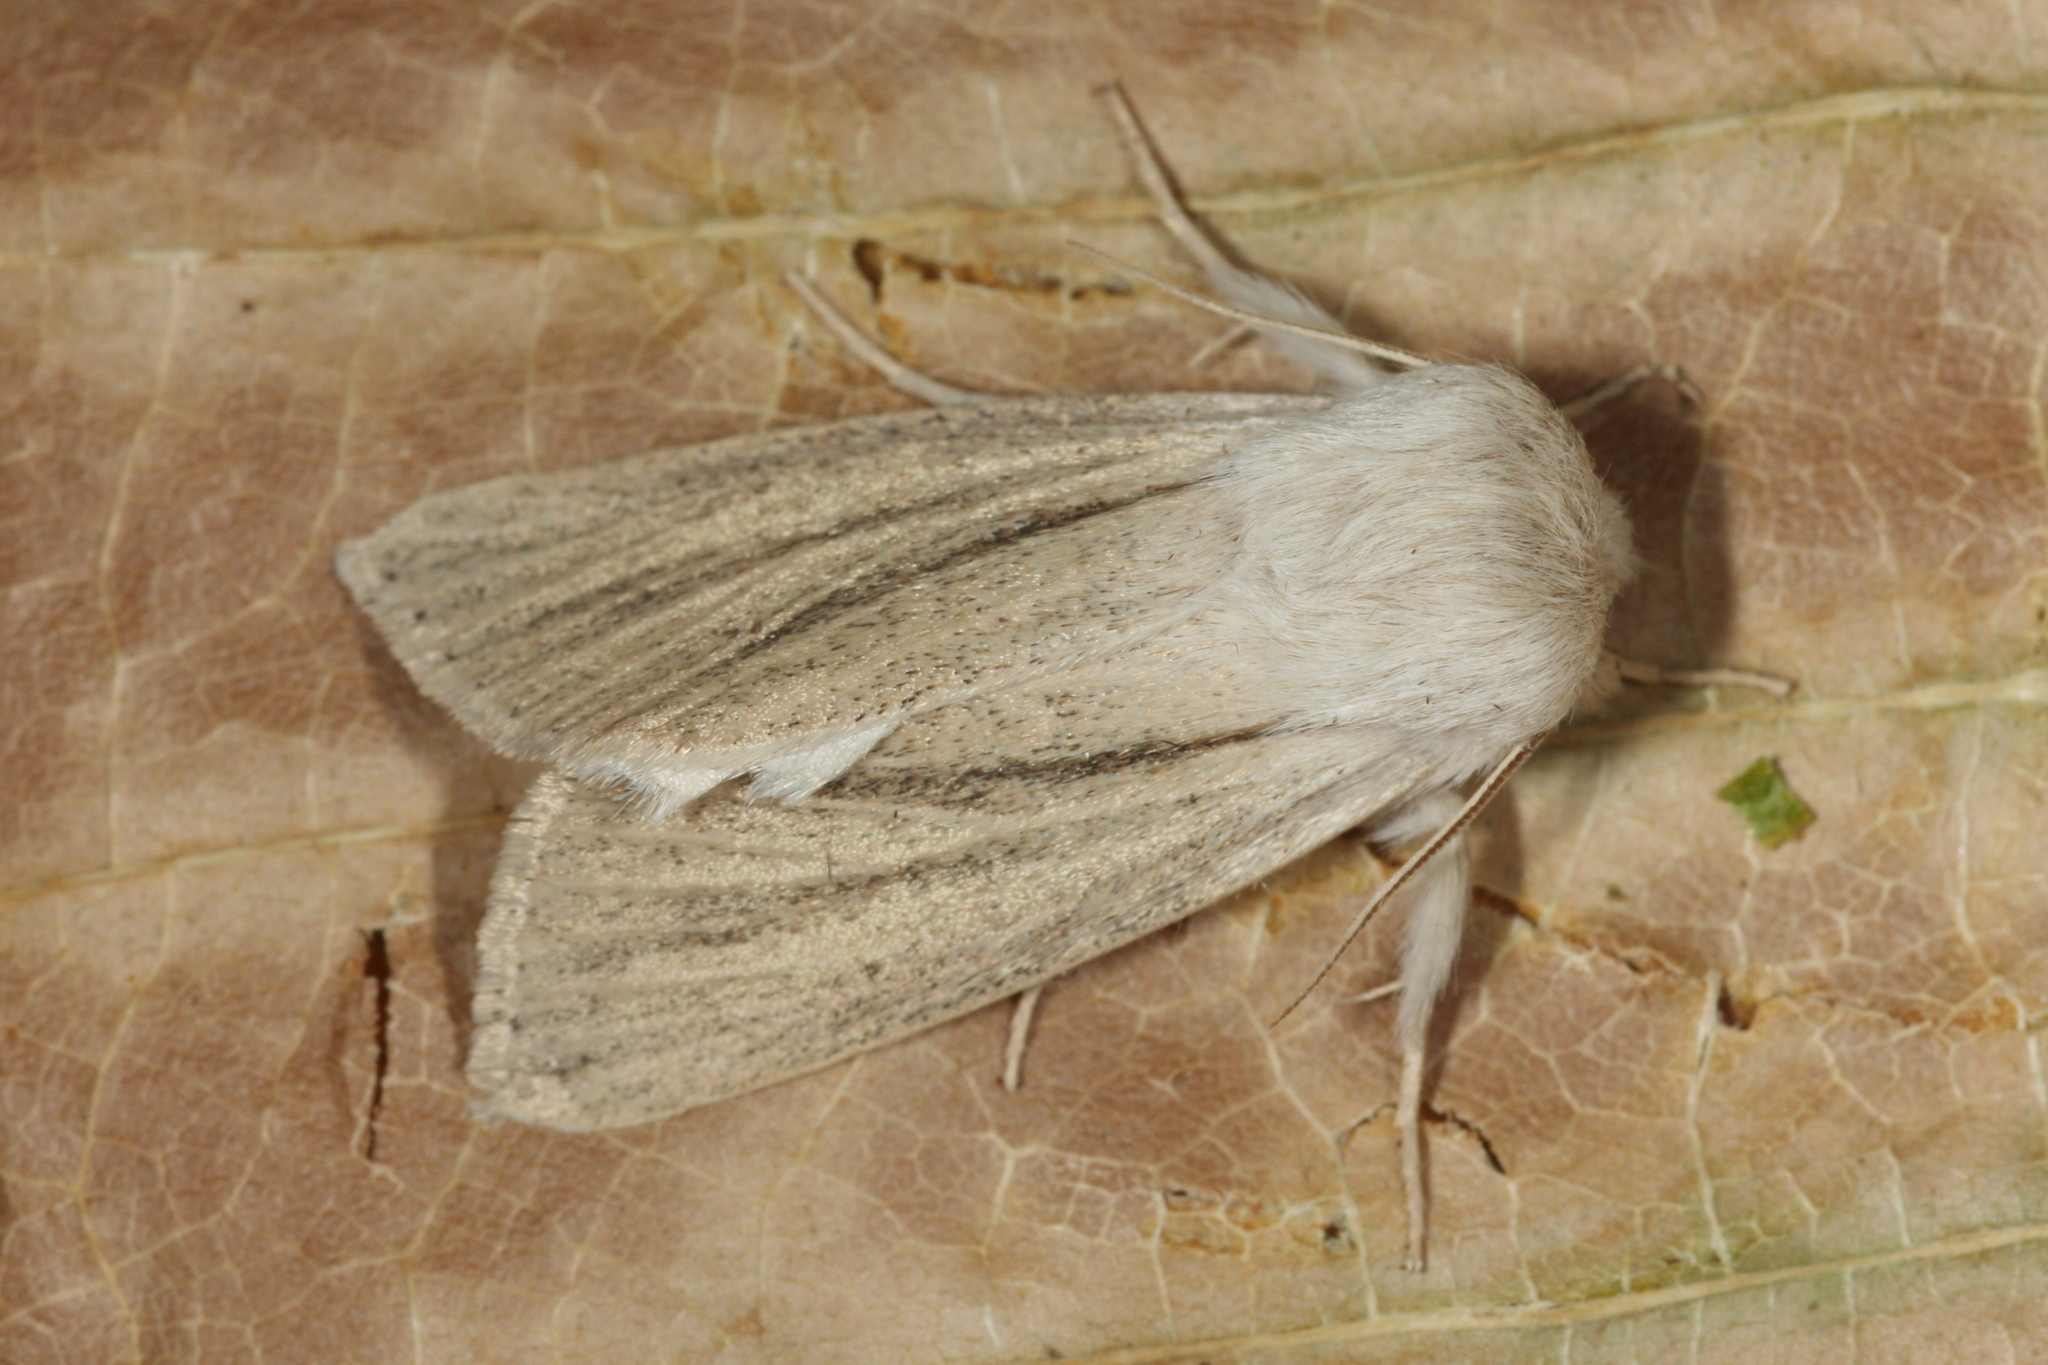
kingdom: Animalia
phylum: Arthropoda
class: Insecta
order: Lepidoptera
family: Noctuidae
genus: Simyra
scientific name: Simyra albovenosa
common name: Reed dagger
